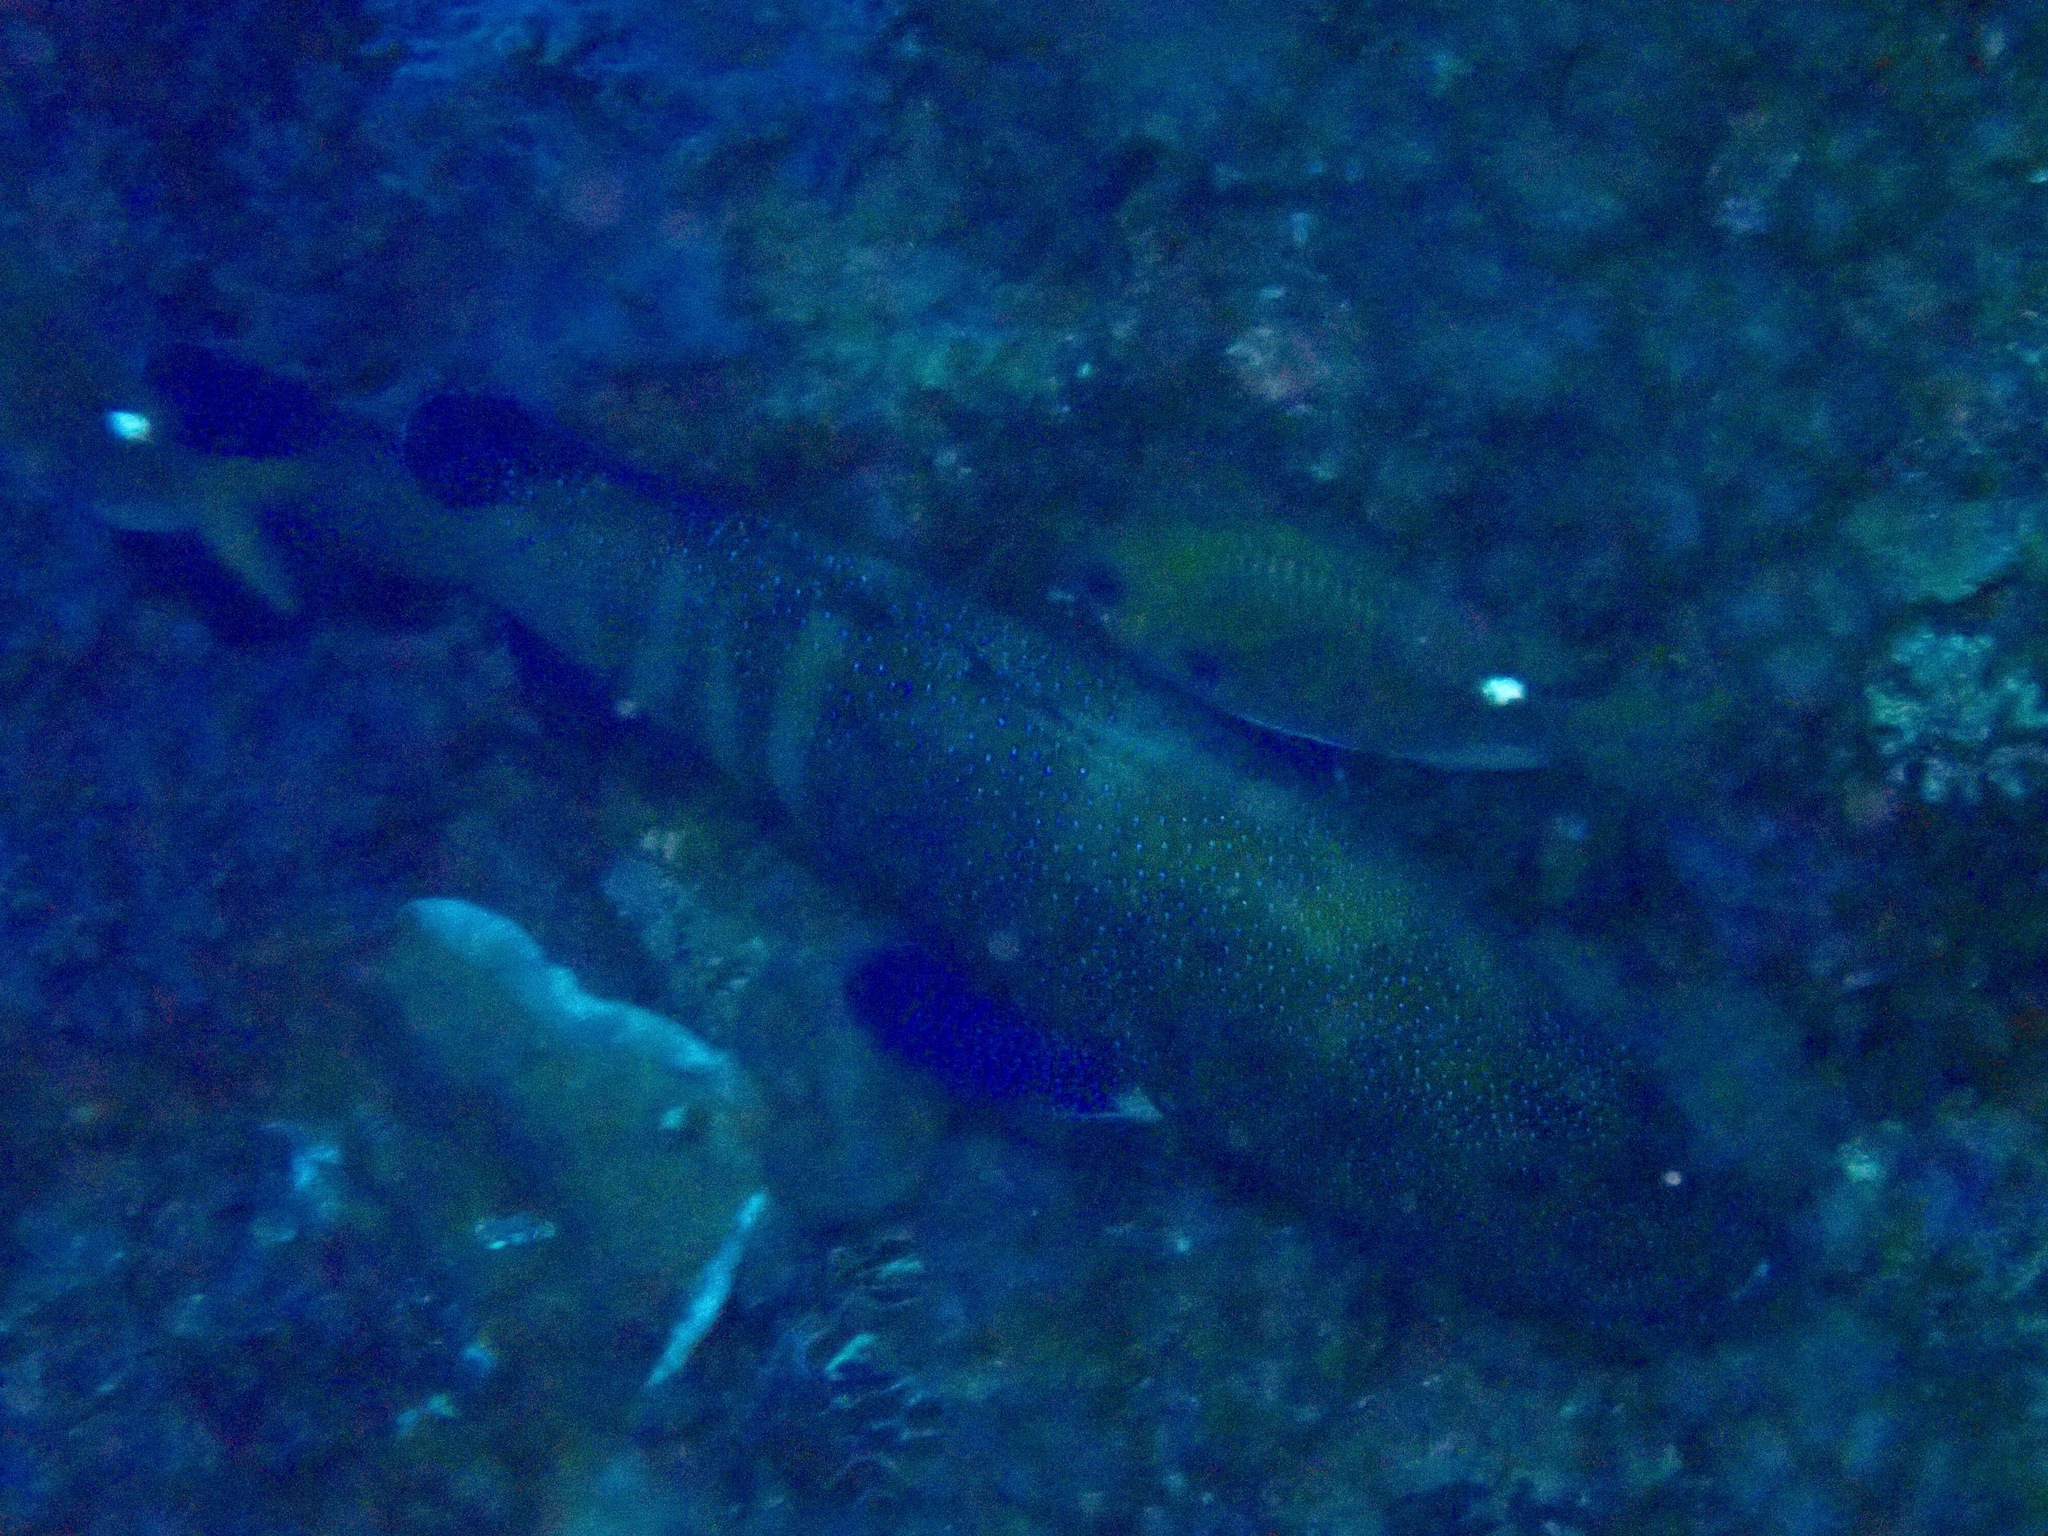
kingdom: Animalia
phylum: Chordata
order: Perciformes
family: Serranidae
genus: Cephalopholis
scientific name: Cephalopholis argus
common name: Peacock grouper
